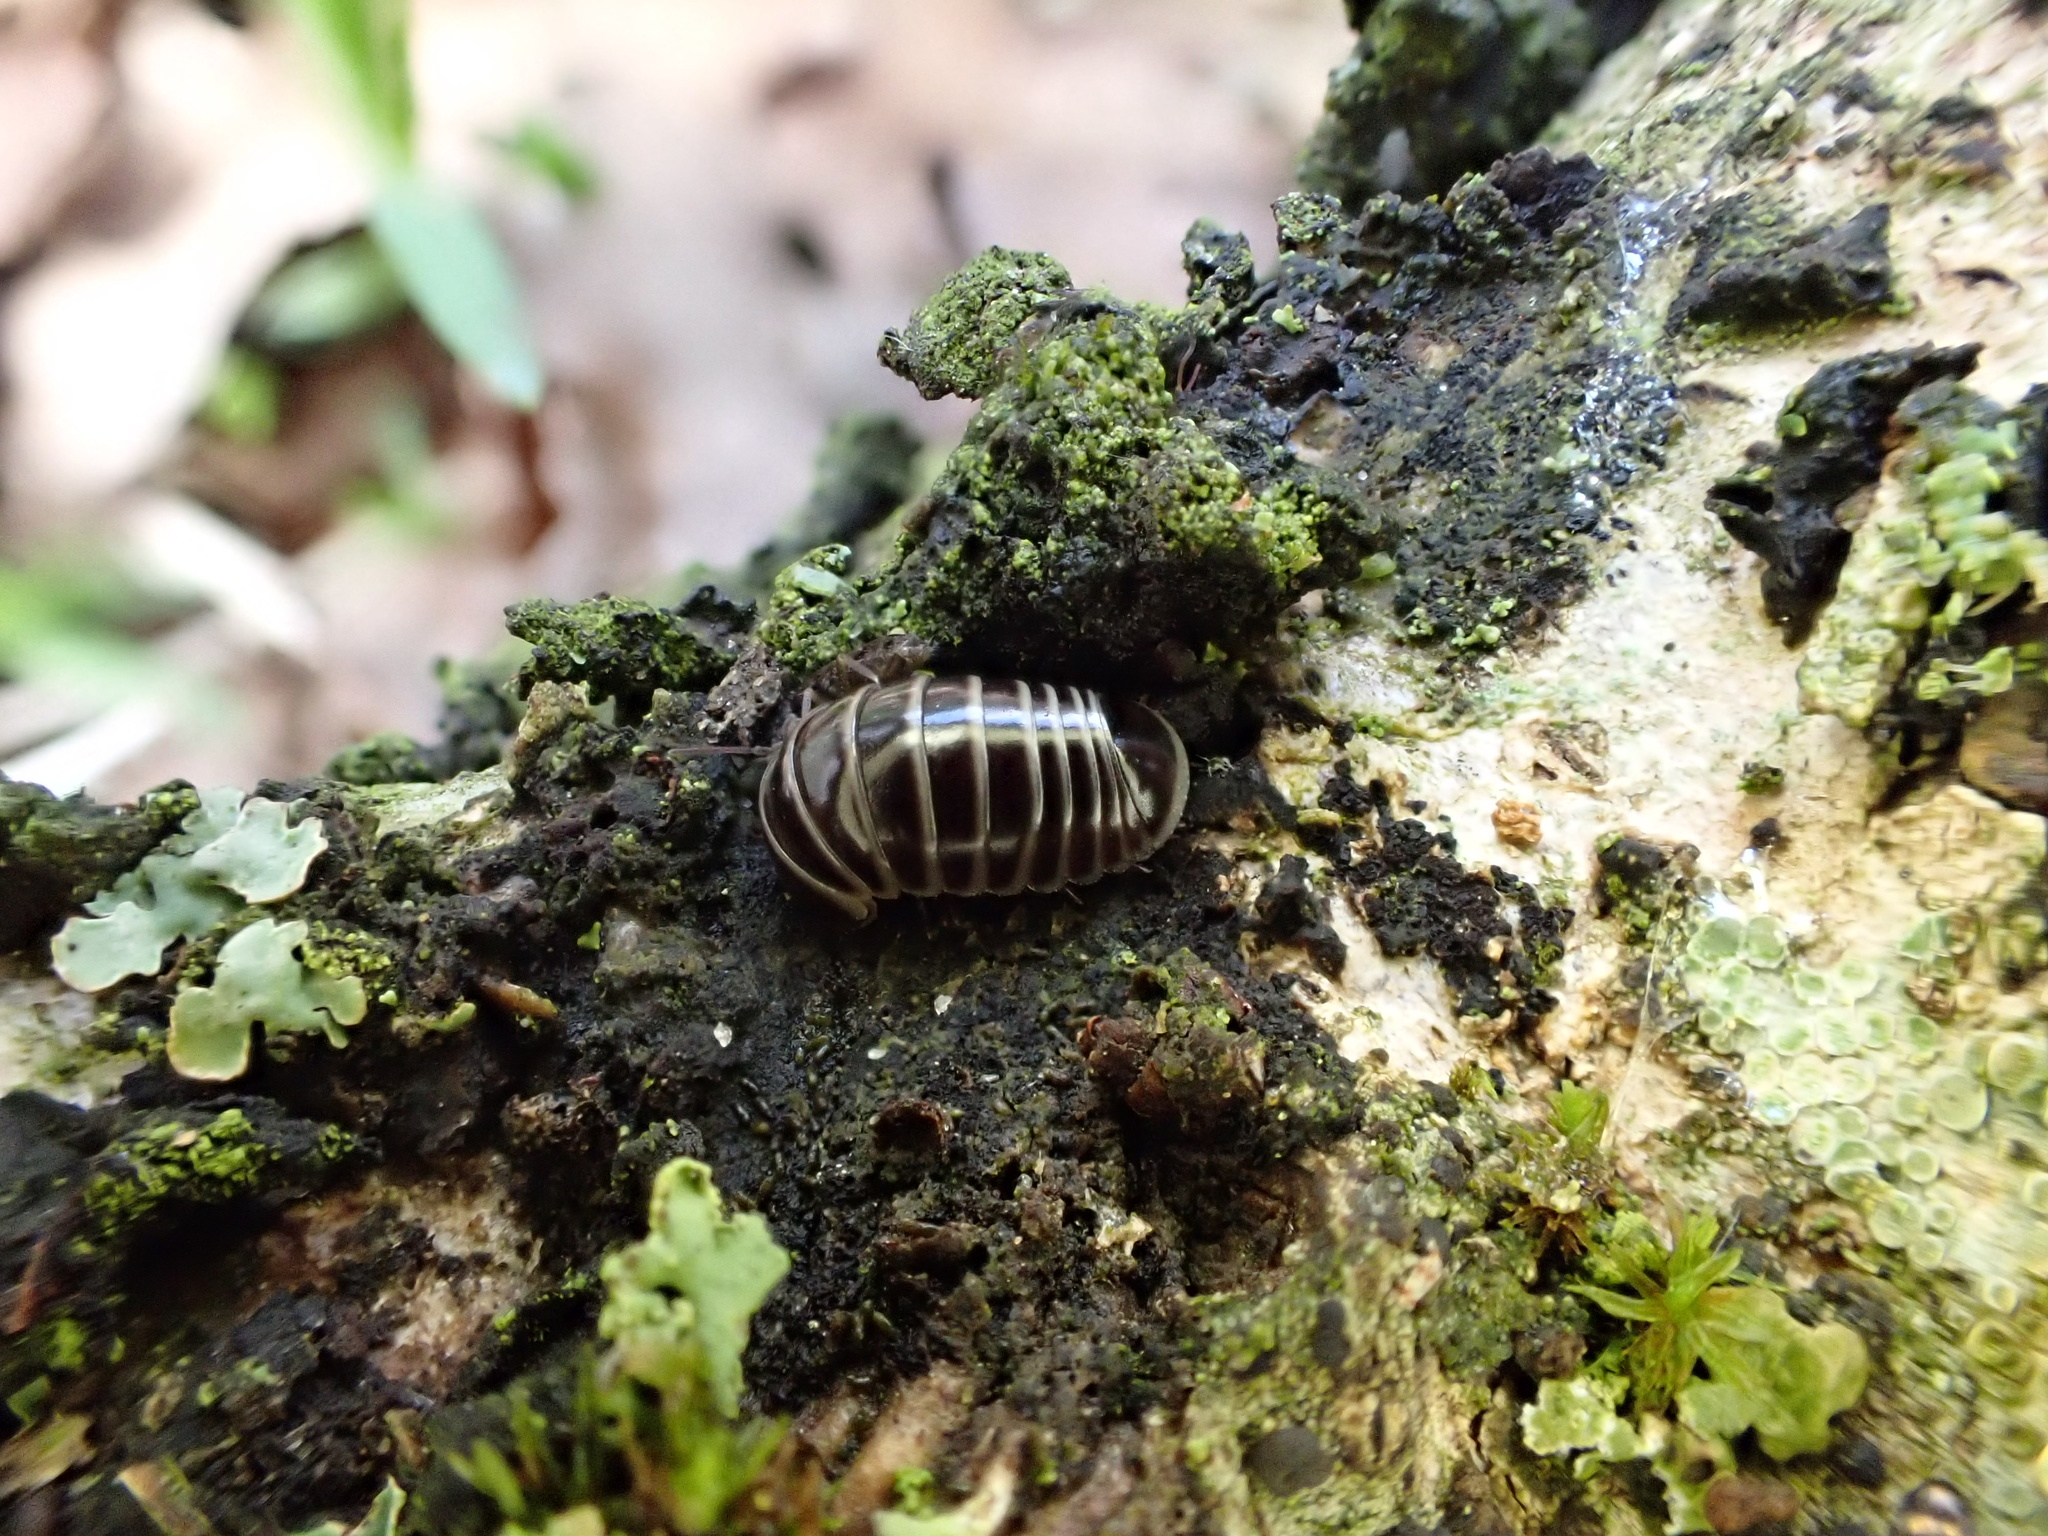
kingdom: Animalia
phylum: Arthropoda
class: Diplopoda
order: Glomerida
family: Glomeridae
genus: Glomeris
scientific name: Glomeris marginata
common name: Bordered pill millipede
